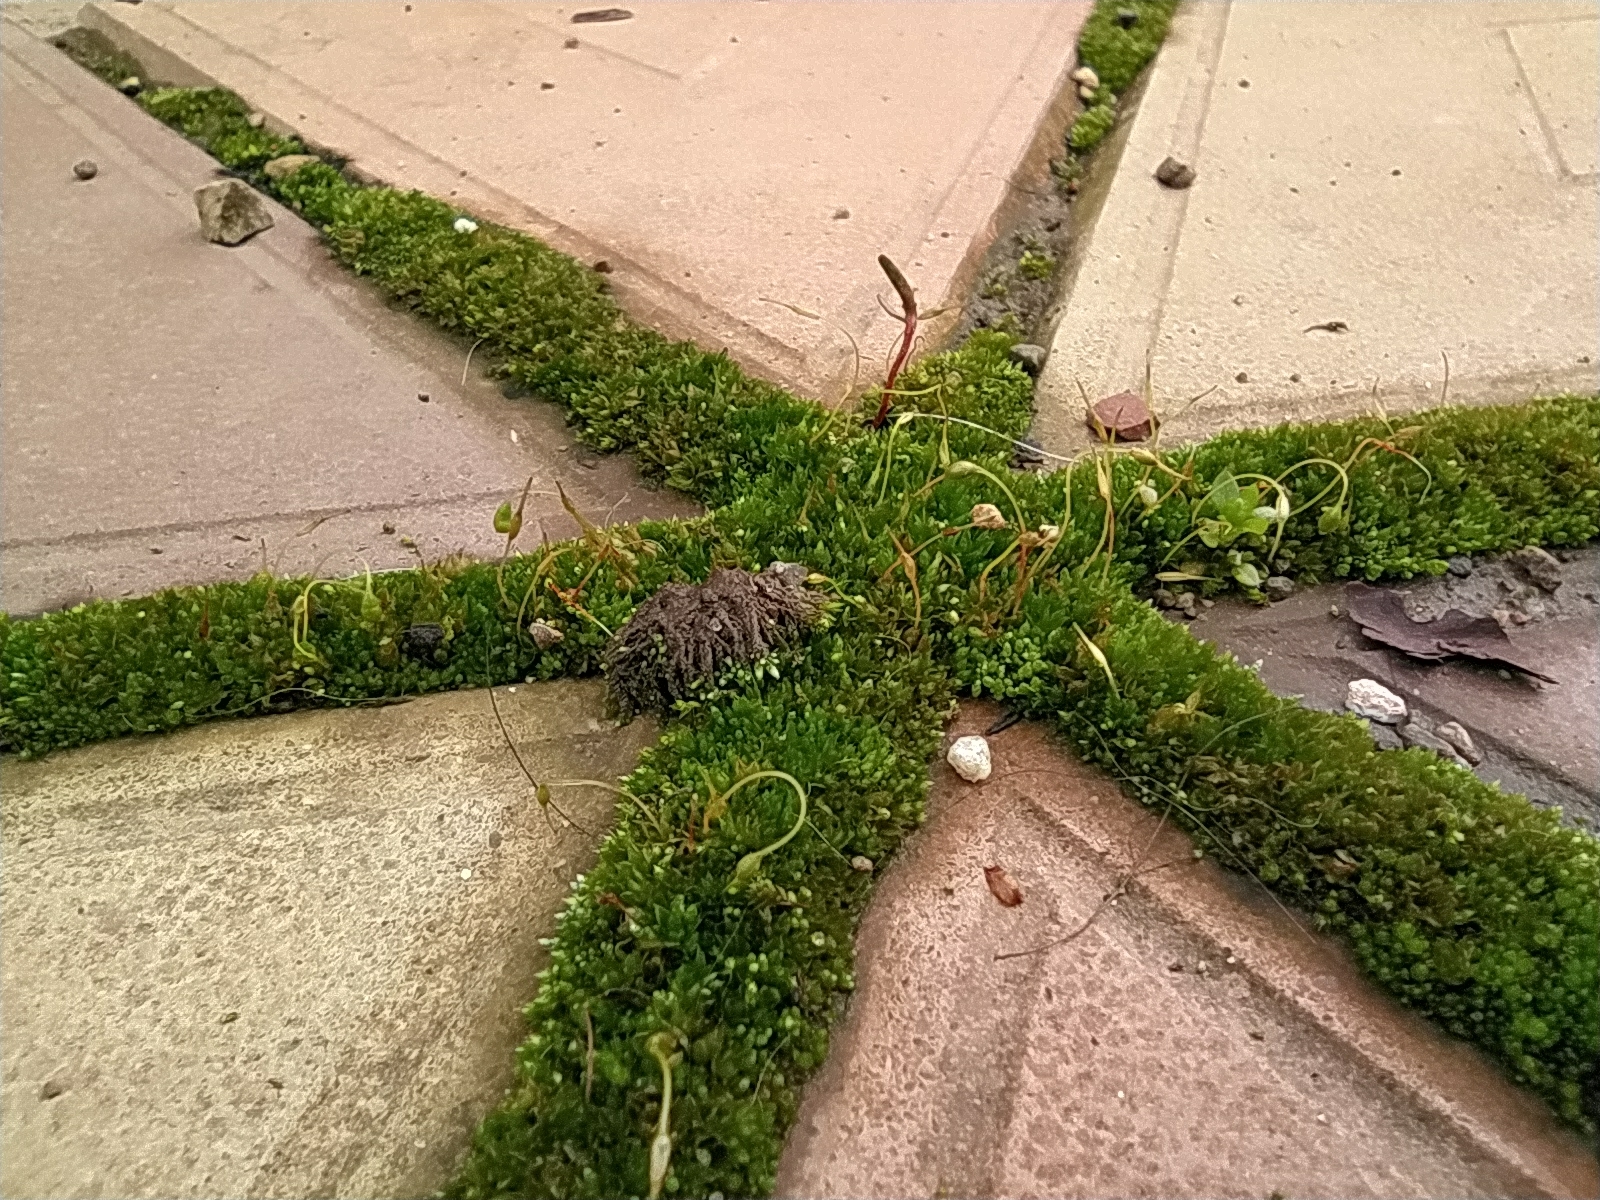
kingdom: Plantae
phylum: Bryophyta
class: Bryopsida
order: Funariales
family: Funariaceae
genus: Funaria
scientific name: Funaria hygrometrica
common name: Common cord moss
